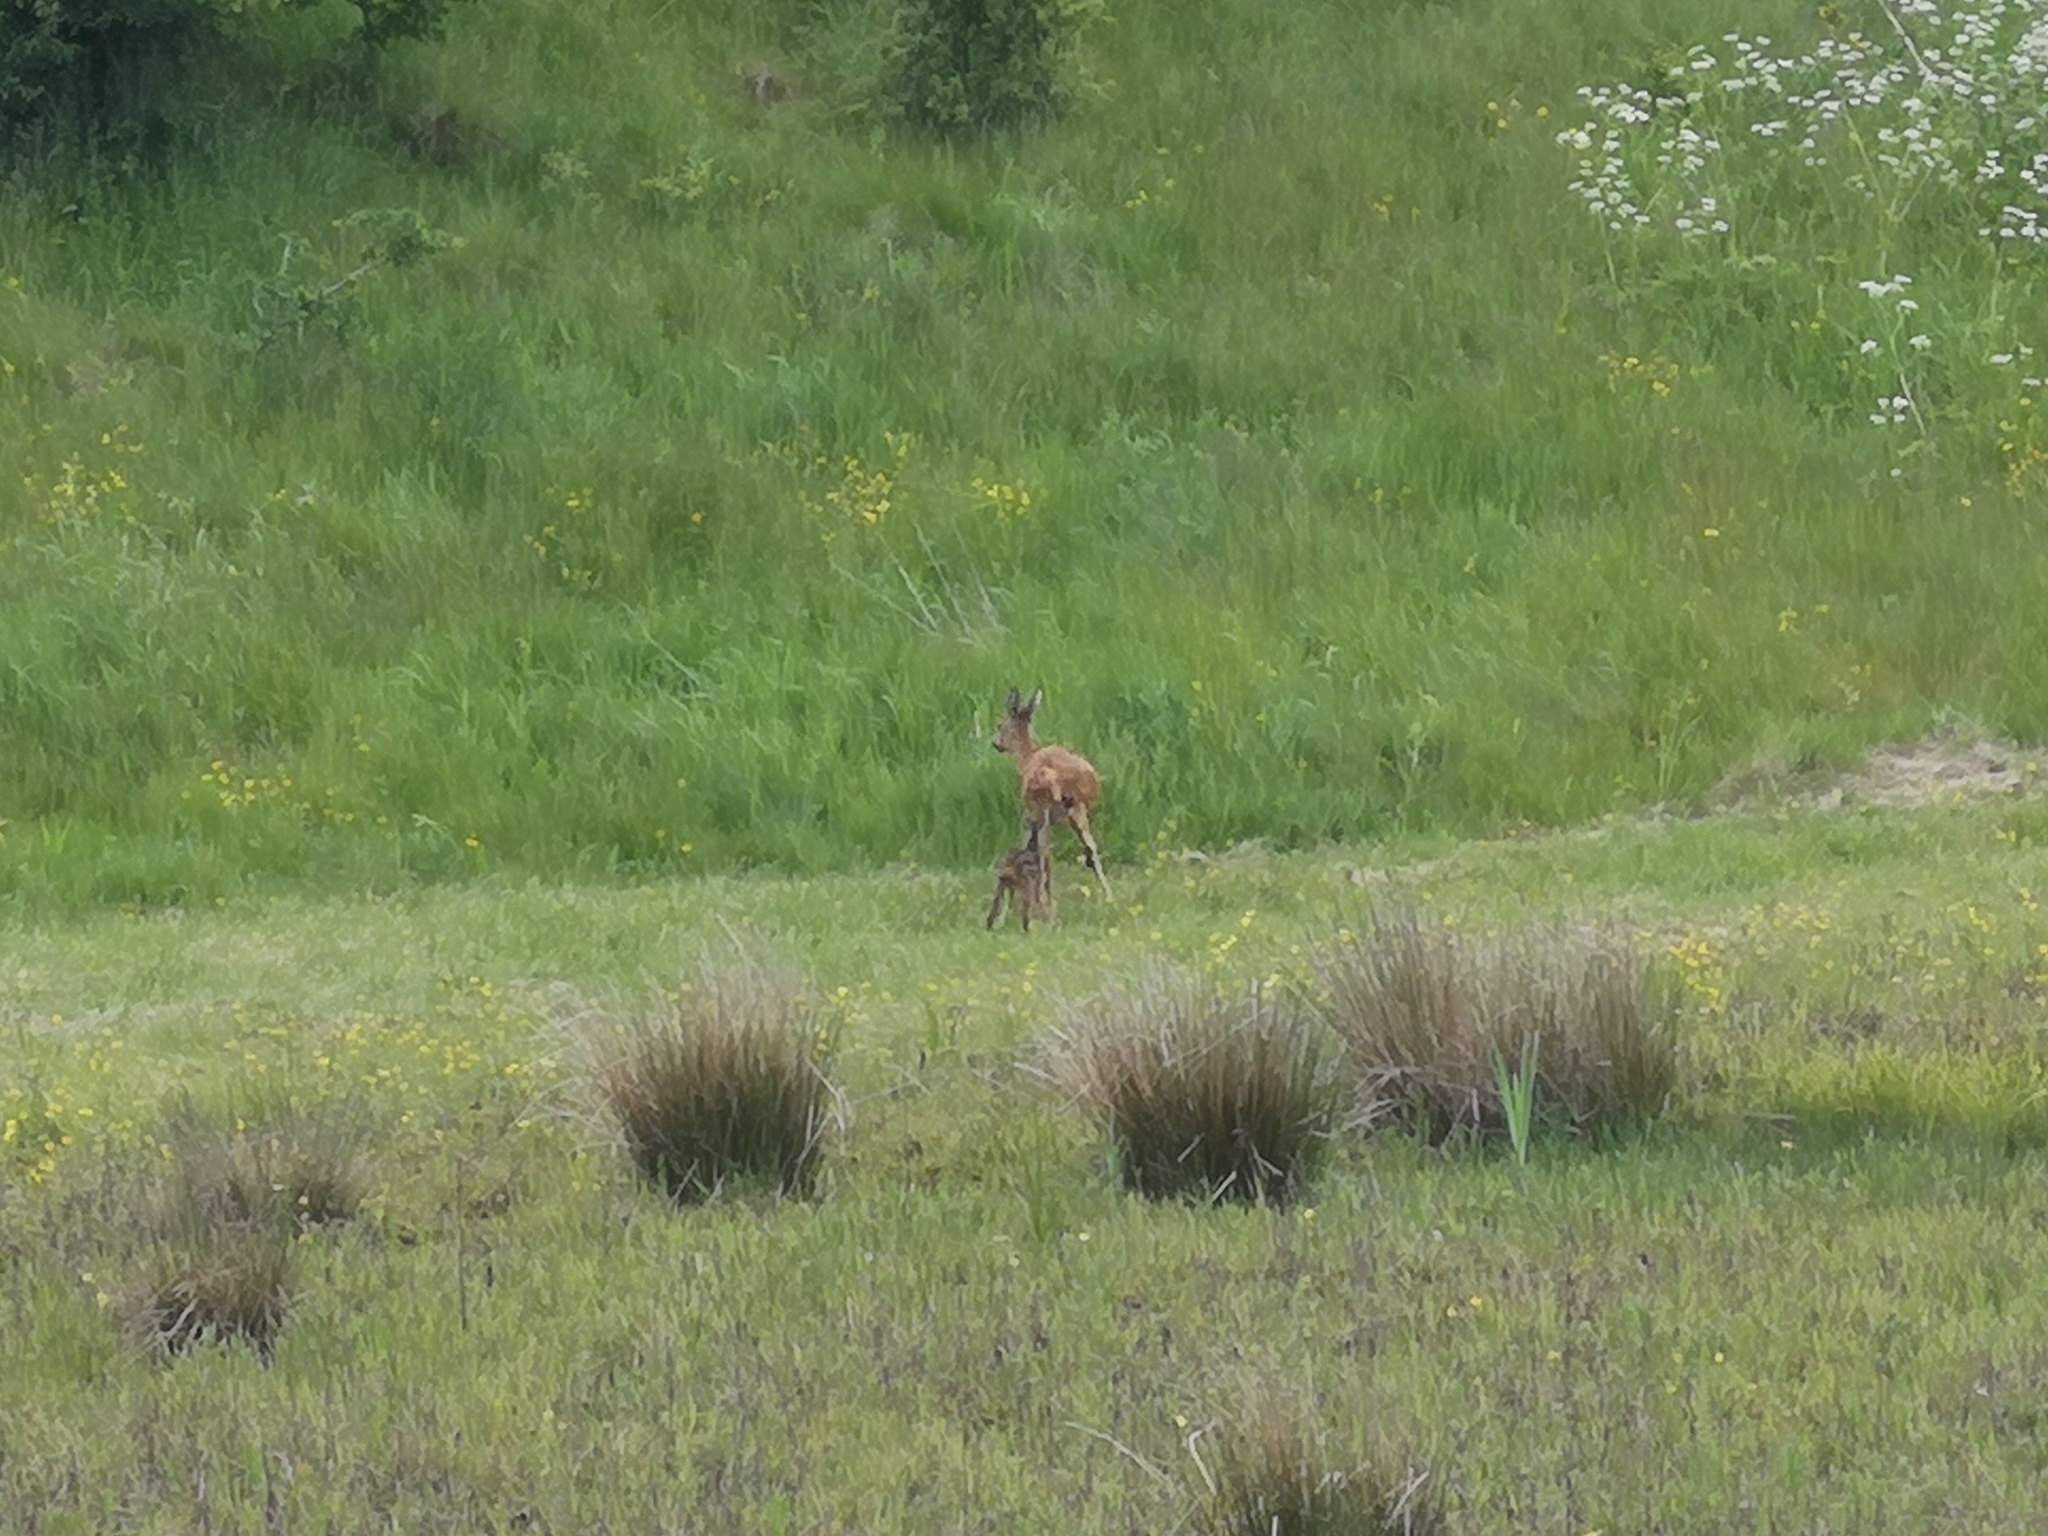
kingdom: Animalia
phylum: Chordata
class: Mammalia
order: Artiodactyla
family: Cervidae
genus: Capreolus
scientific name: Capreolus capreolus
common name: Western roe deer
